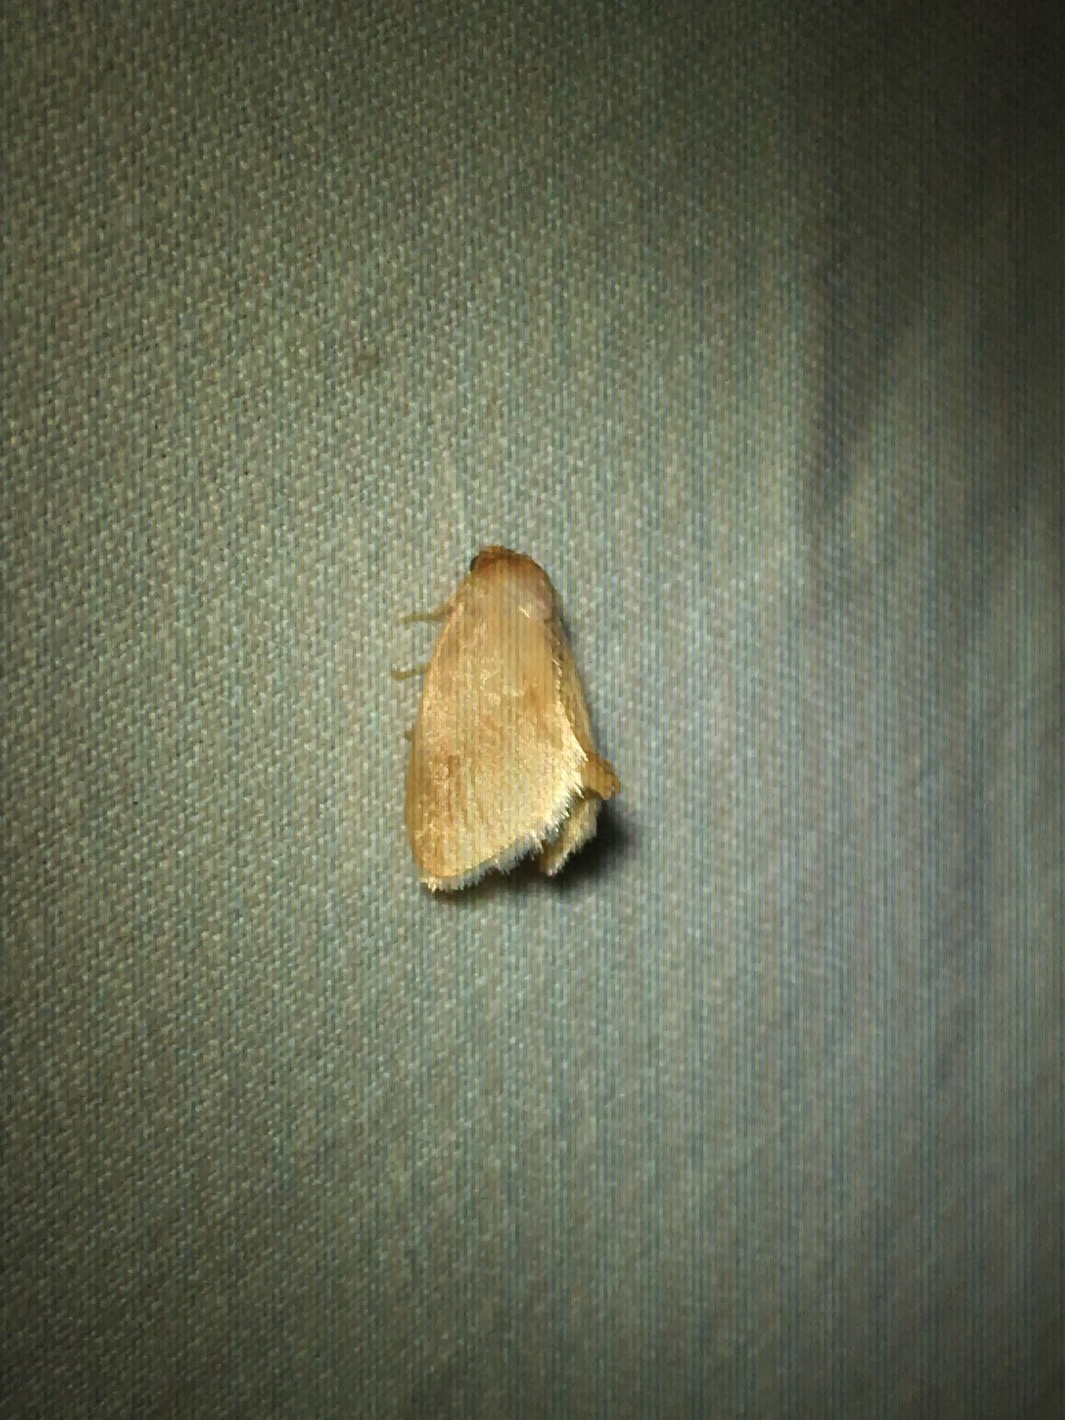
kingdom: Animalia
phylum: Arthropoda
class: Insecta
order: Lepidoptera
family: Limacodidae
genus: Tortricidia
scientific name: Tortricidia testacea
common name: Early button slug moth
